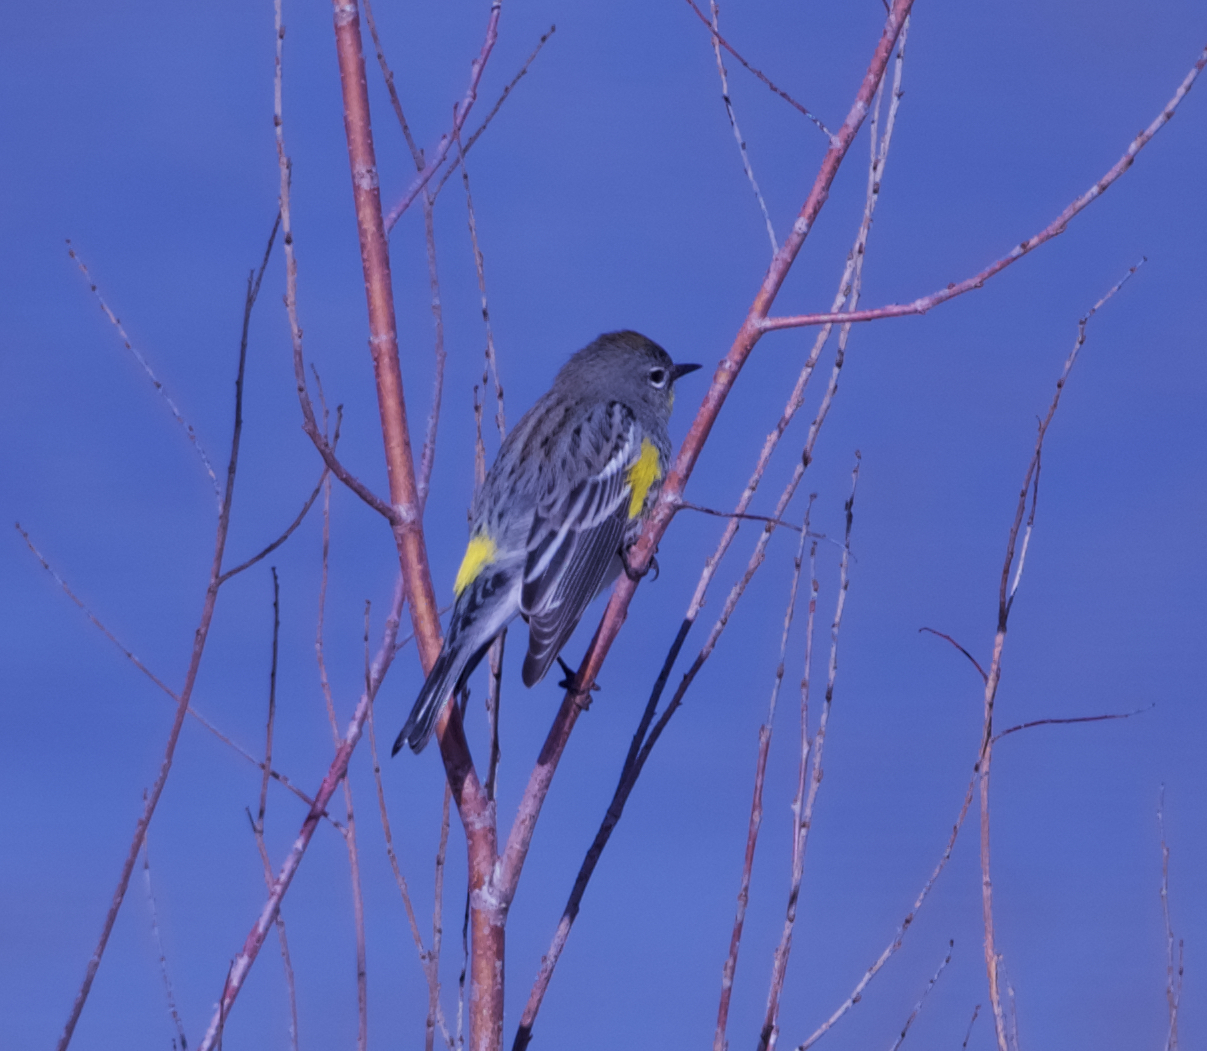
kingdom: Animalia
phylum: Chordata
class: Aves
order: Passeriformes
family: Parulidae
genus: Setophaga
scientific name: Setophaga coronata
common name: Myrtle warbler
